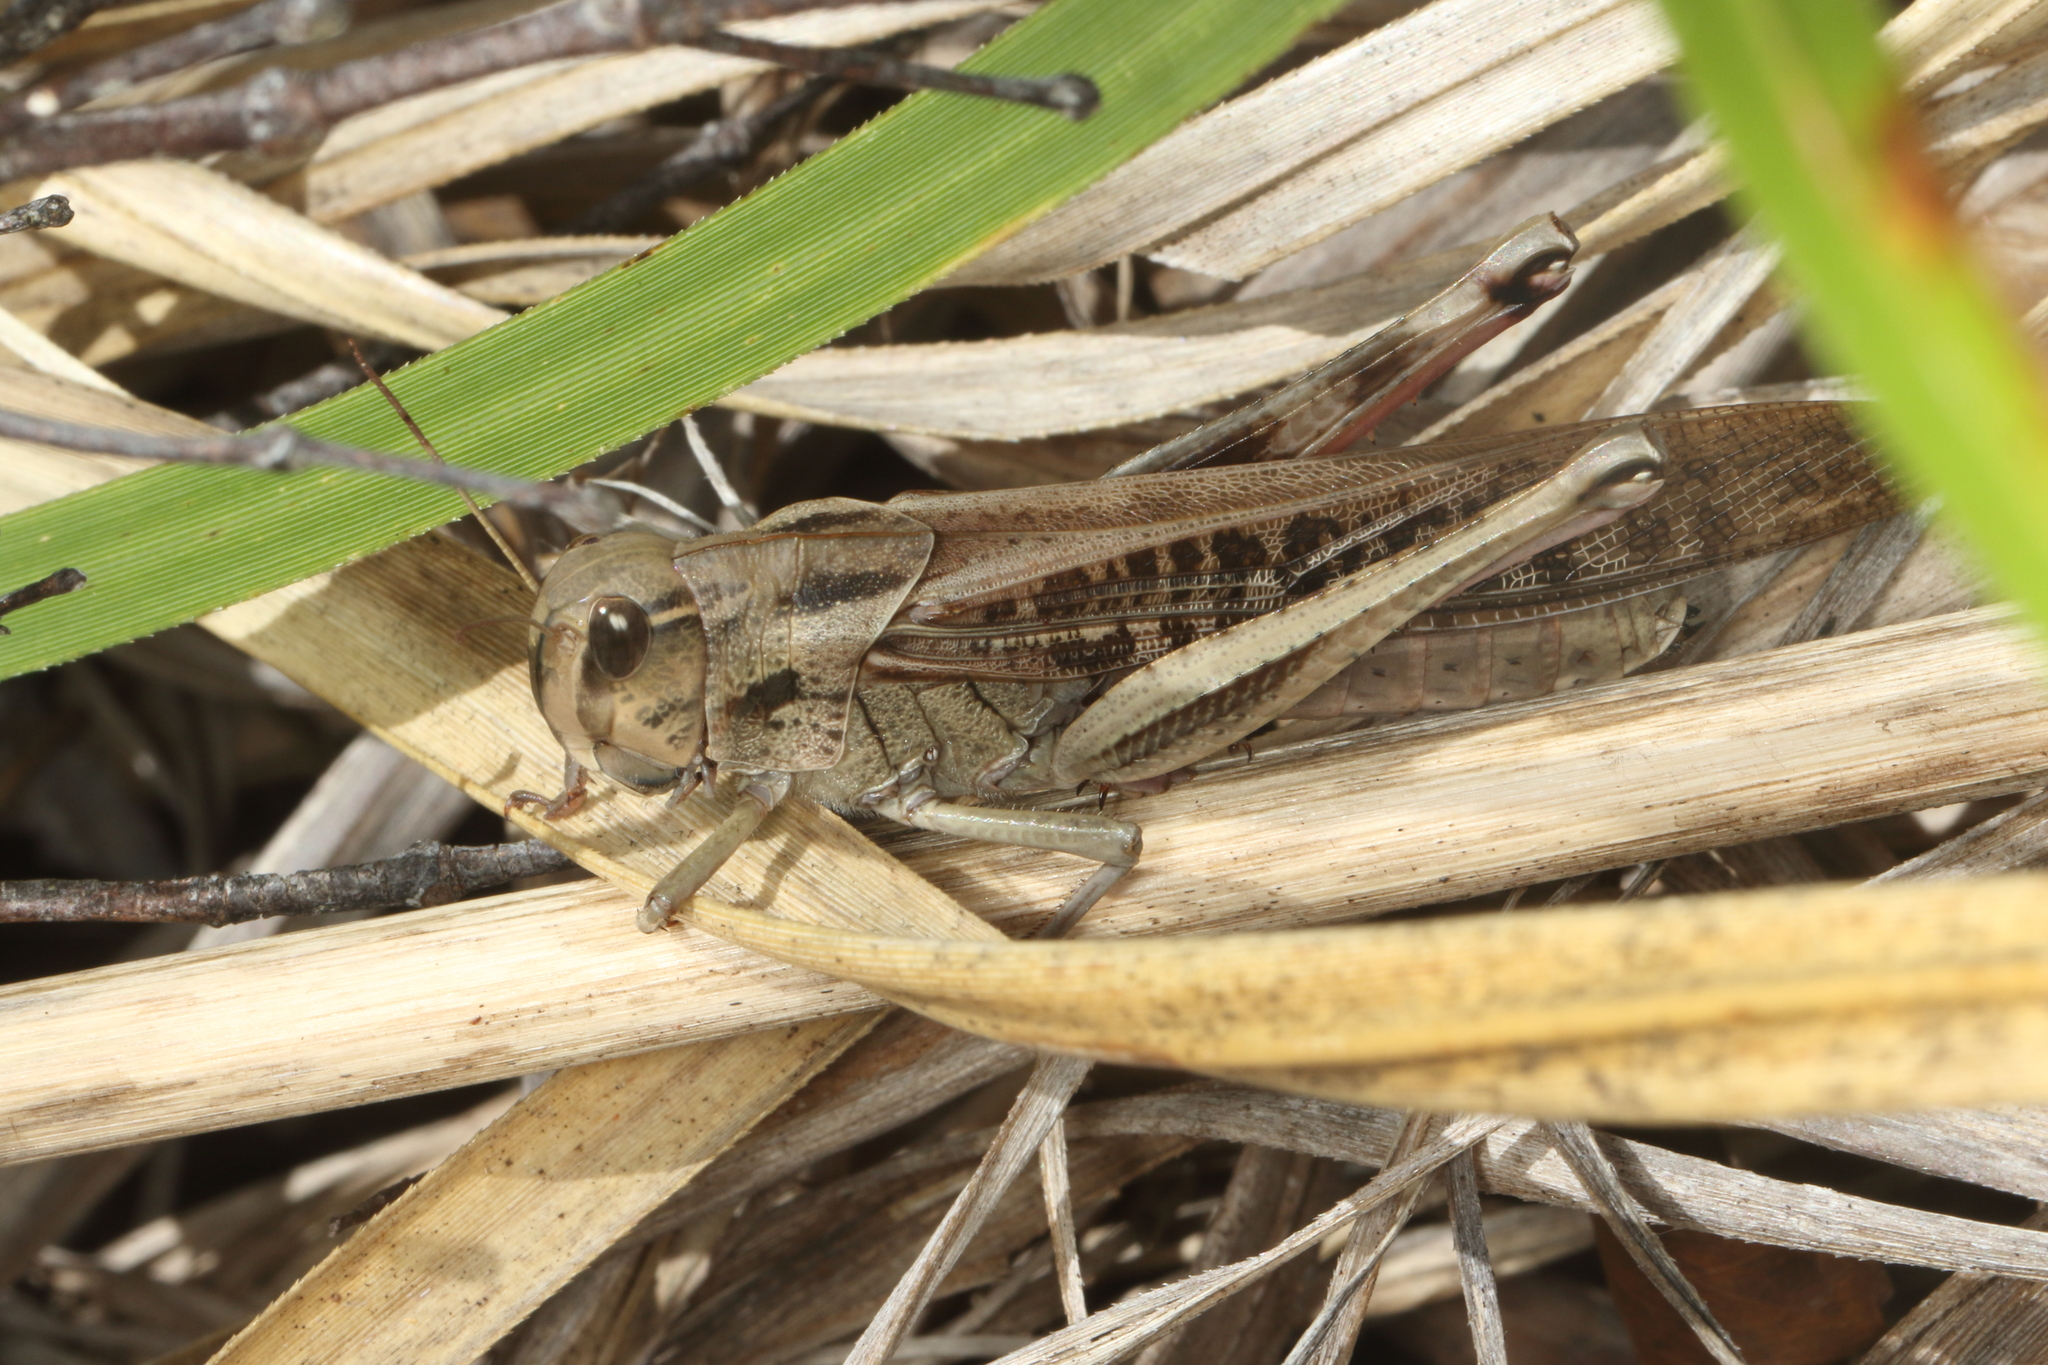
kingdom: Animalia
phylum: Arthropoda
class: Insecta
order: Orthoptera
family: Acrididae
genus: Locusta
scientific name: Locusta migratoria
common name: Migratory locust
